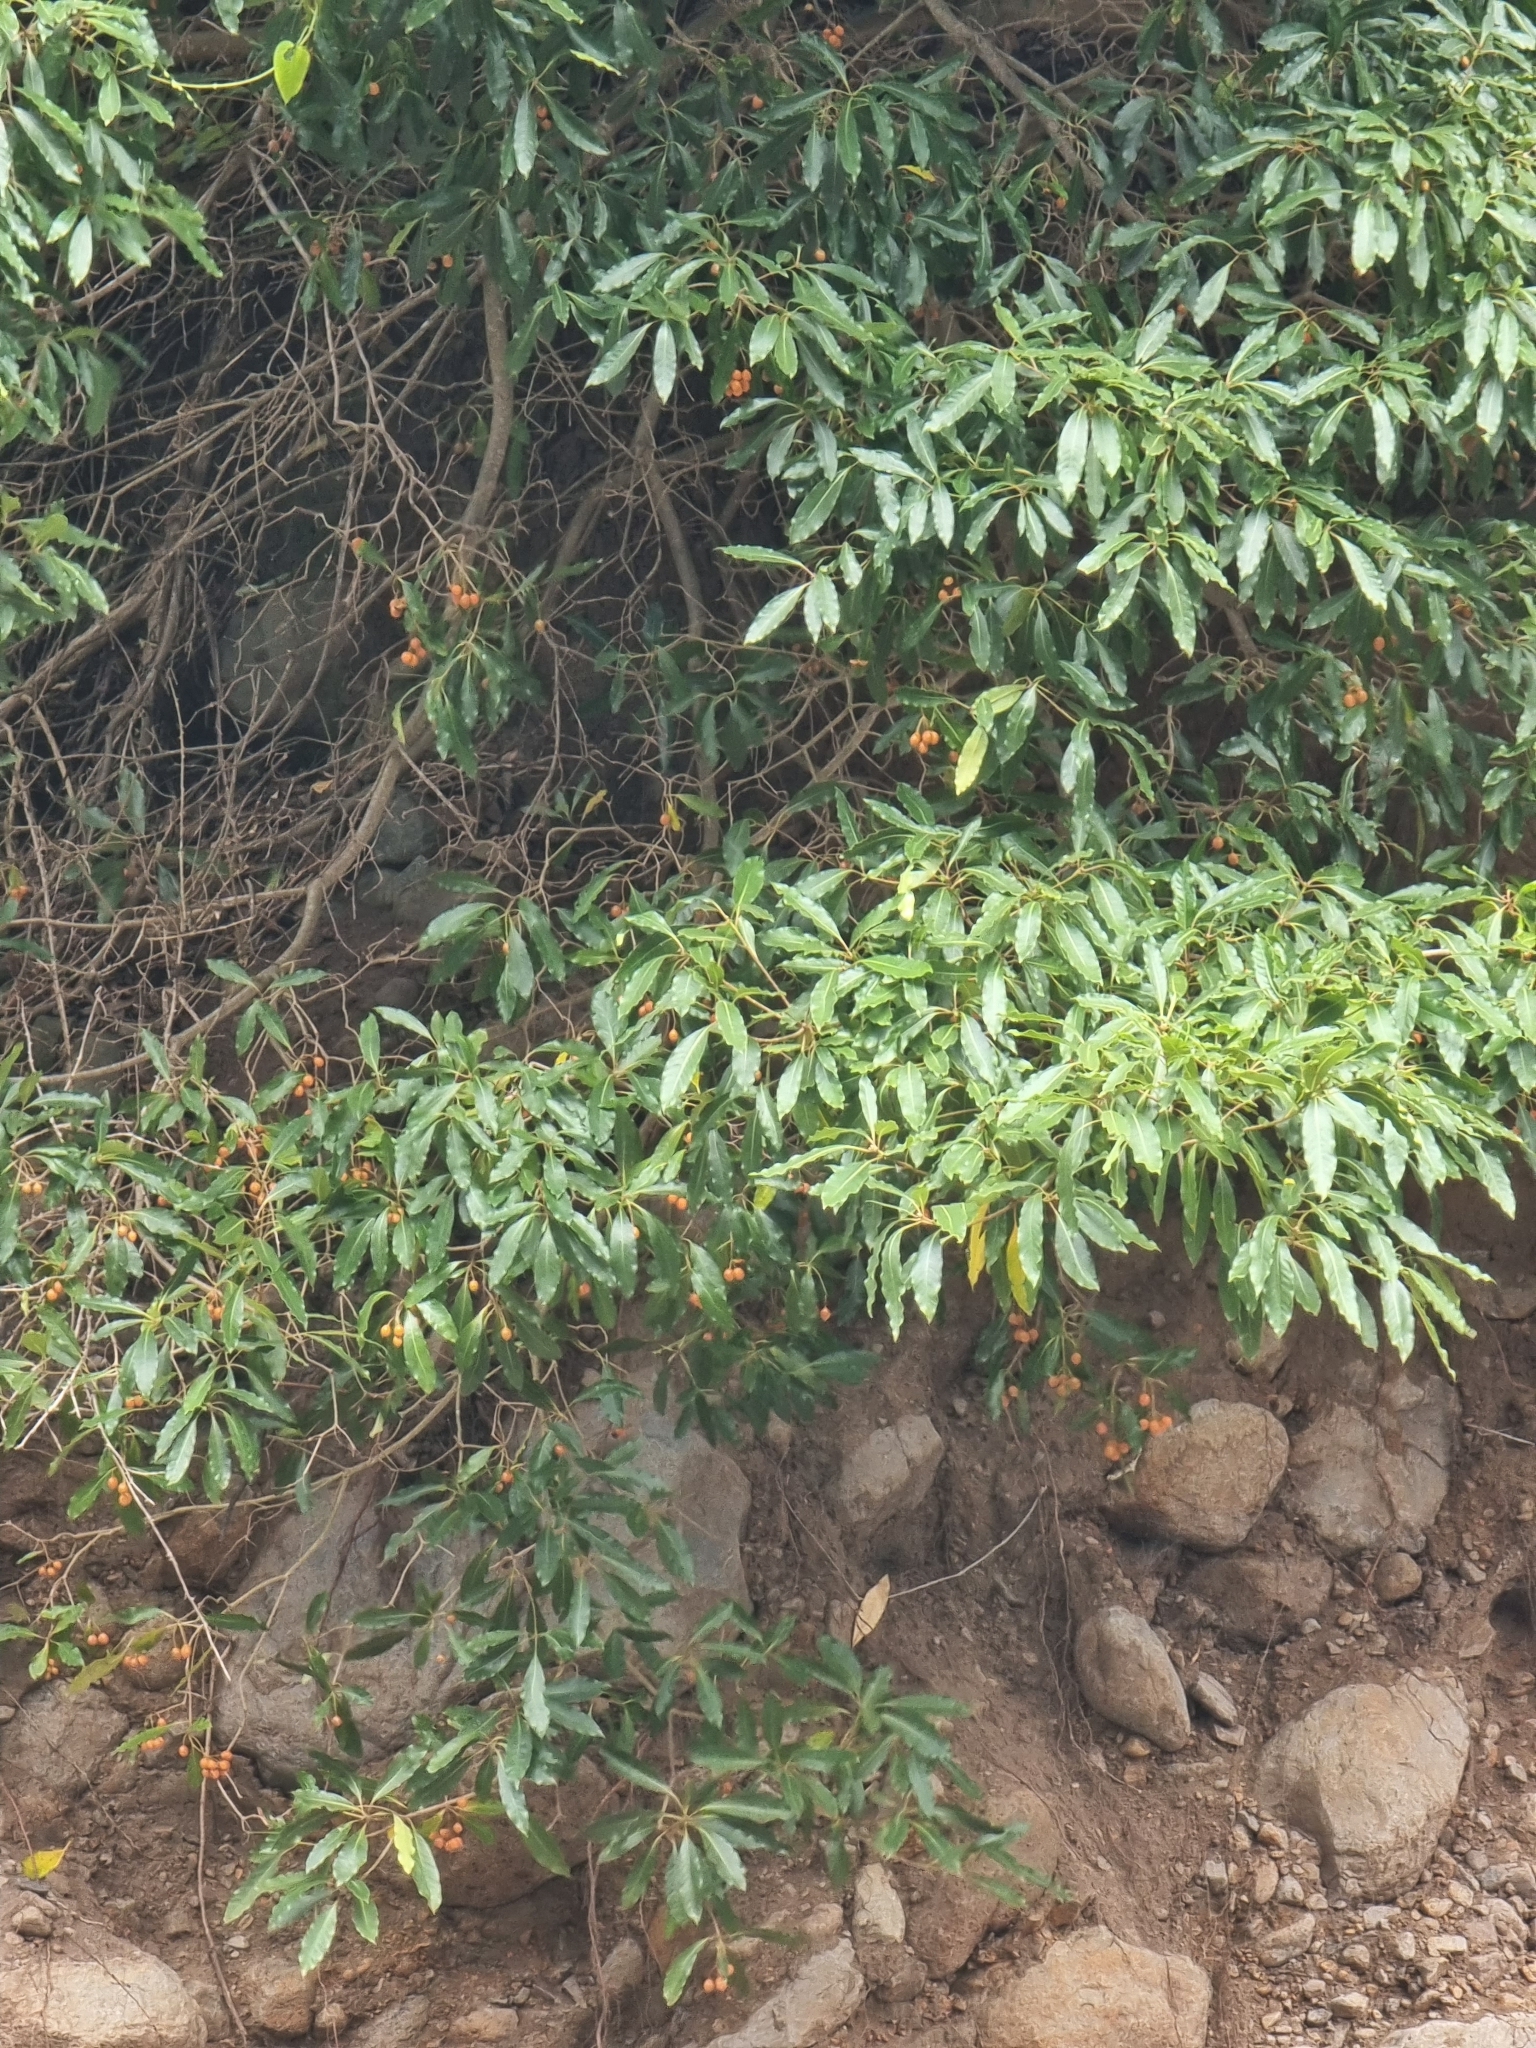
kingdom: Plantae
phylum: Tracheophyta
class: Magnoliopsida
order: Apiales
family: Pittosporaceae
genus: Pittosporum
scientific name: Pittosporum undulatum
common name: Australian cheesewood
